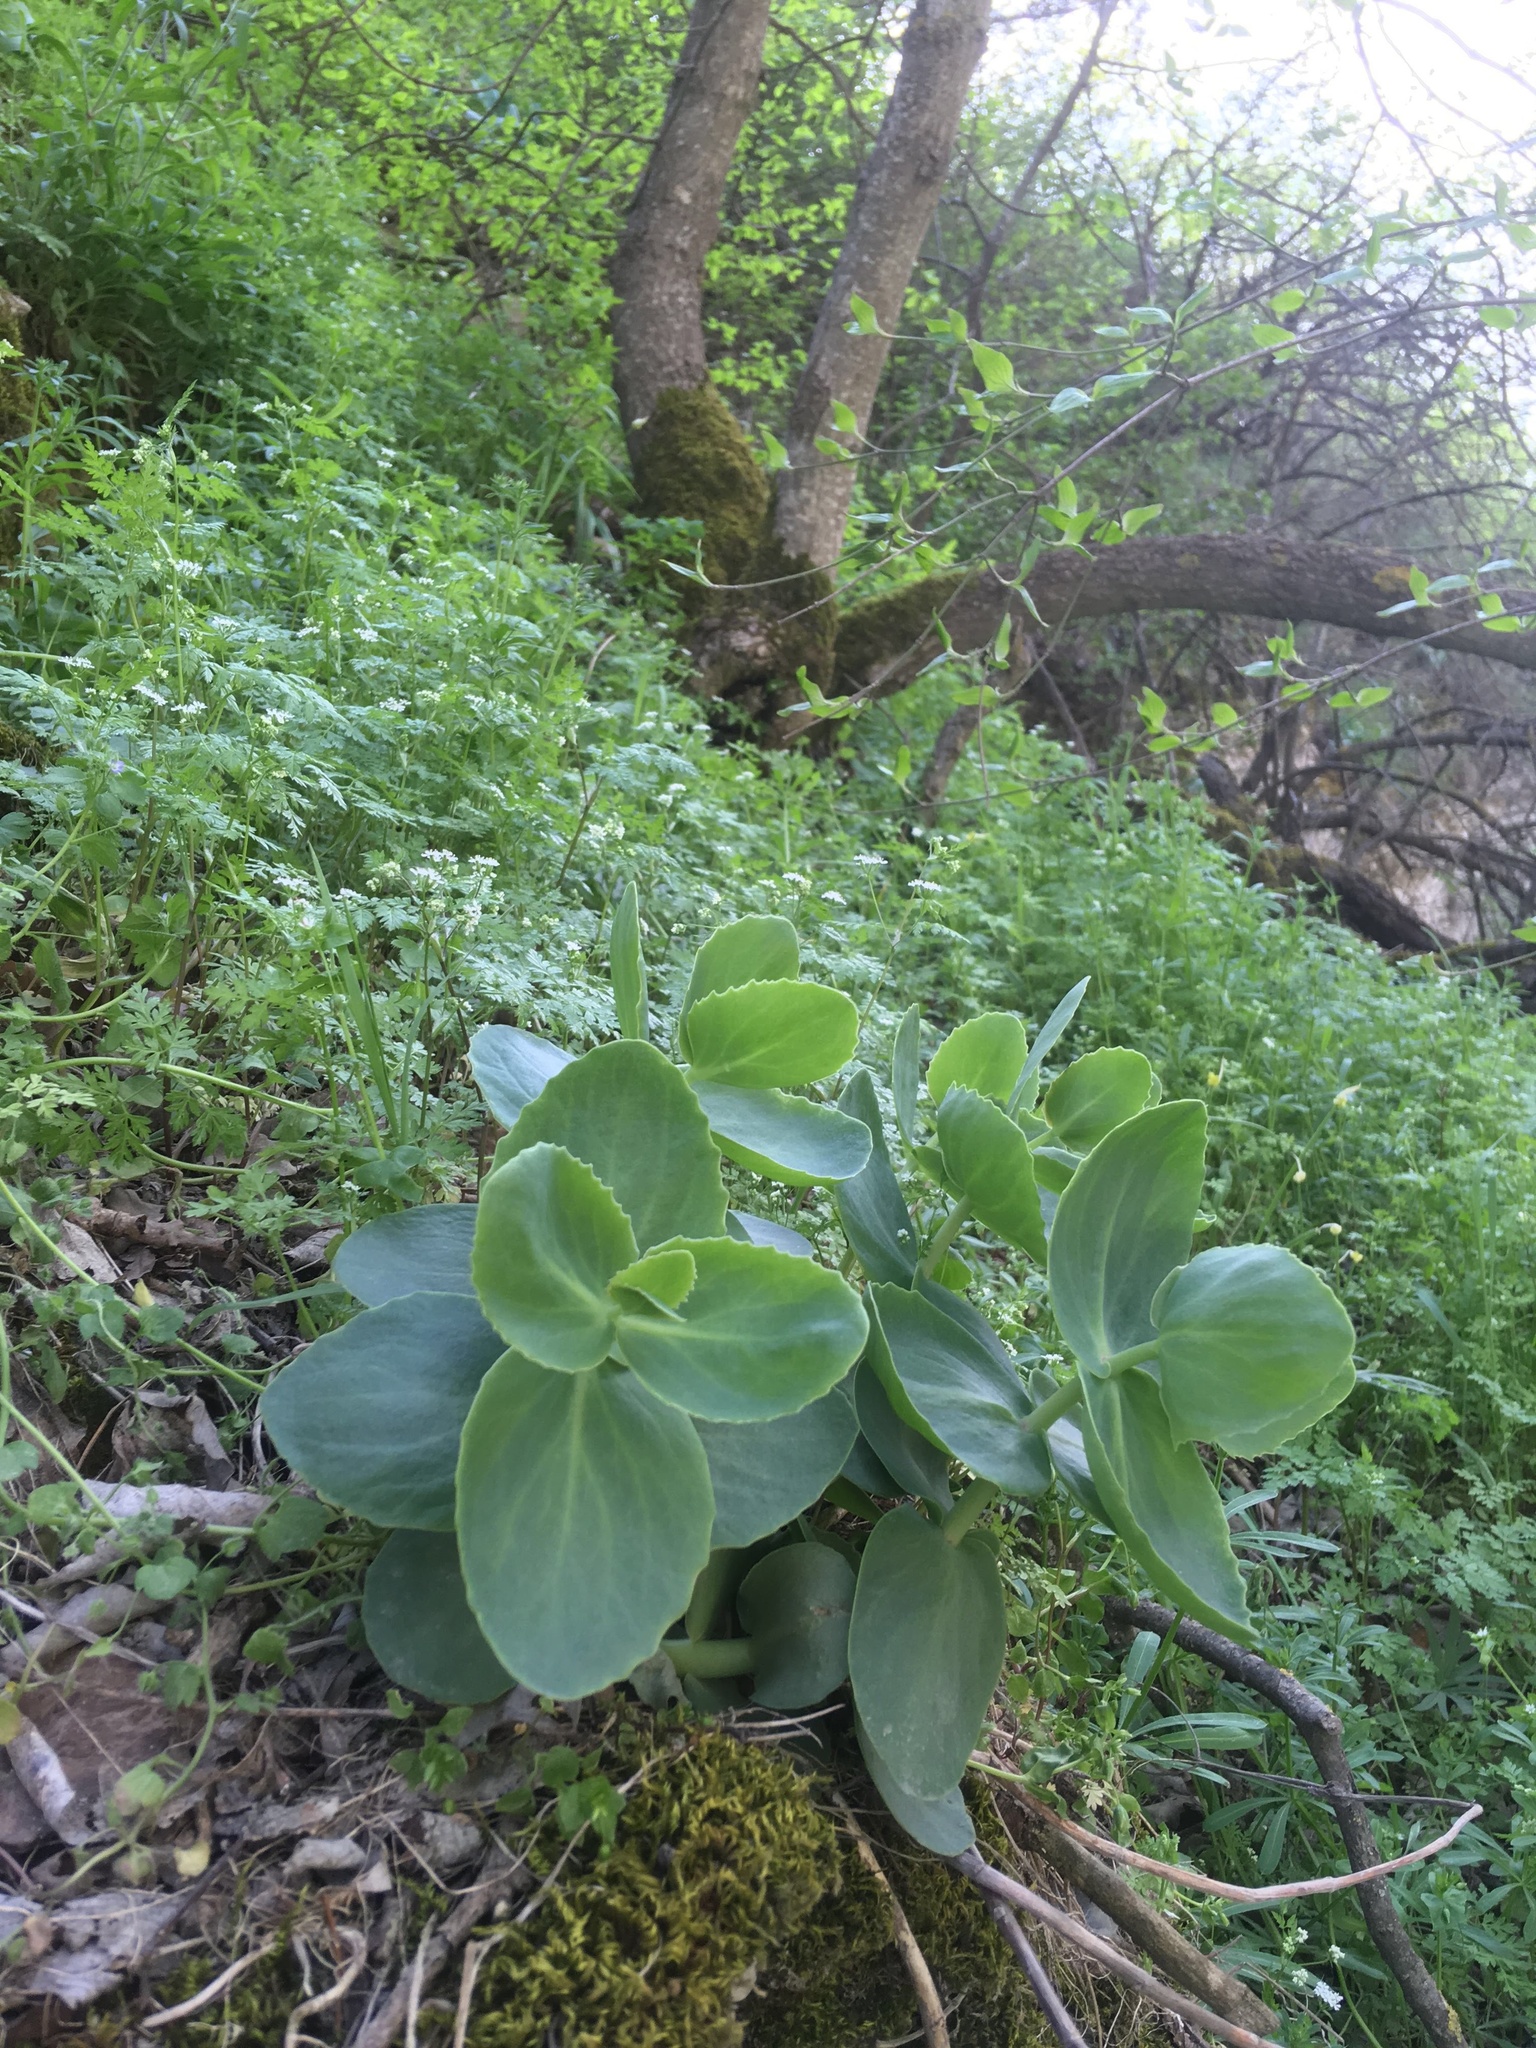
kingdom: Plantae
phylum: Tracheophyta
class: Magnoliopsida
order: Saxifragales
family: Crassulaceae
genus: Hylotelephium
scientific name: Hylotelephium maximum
